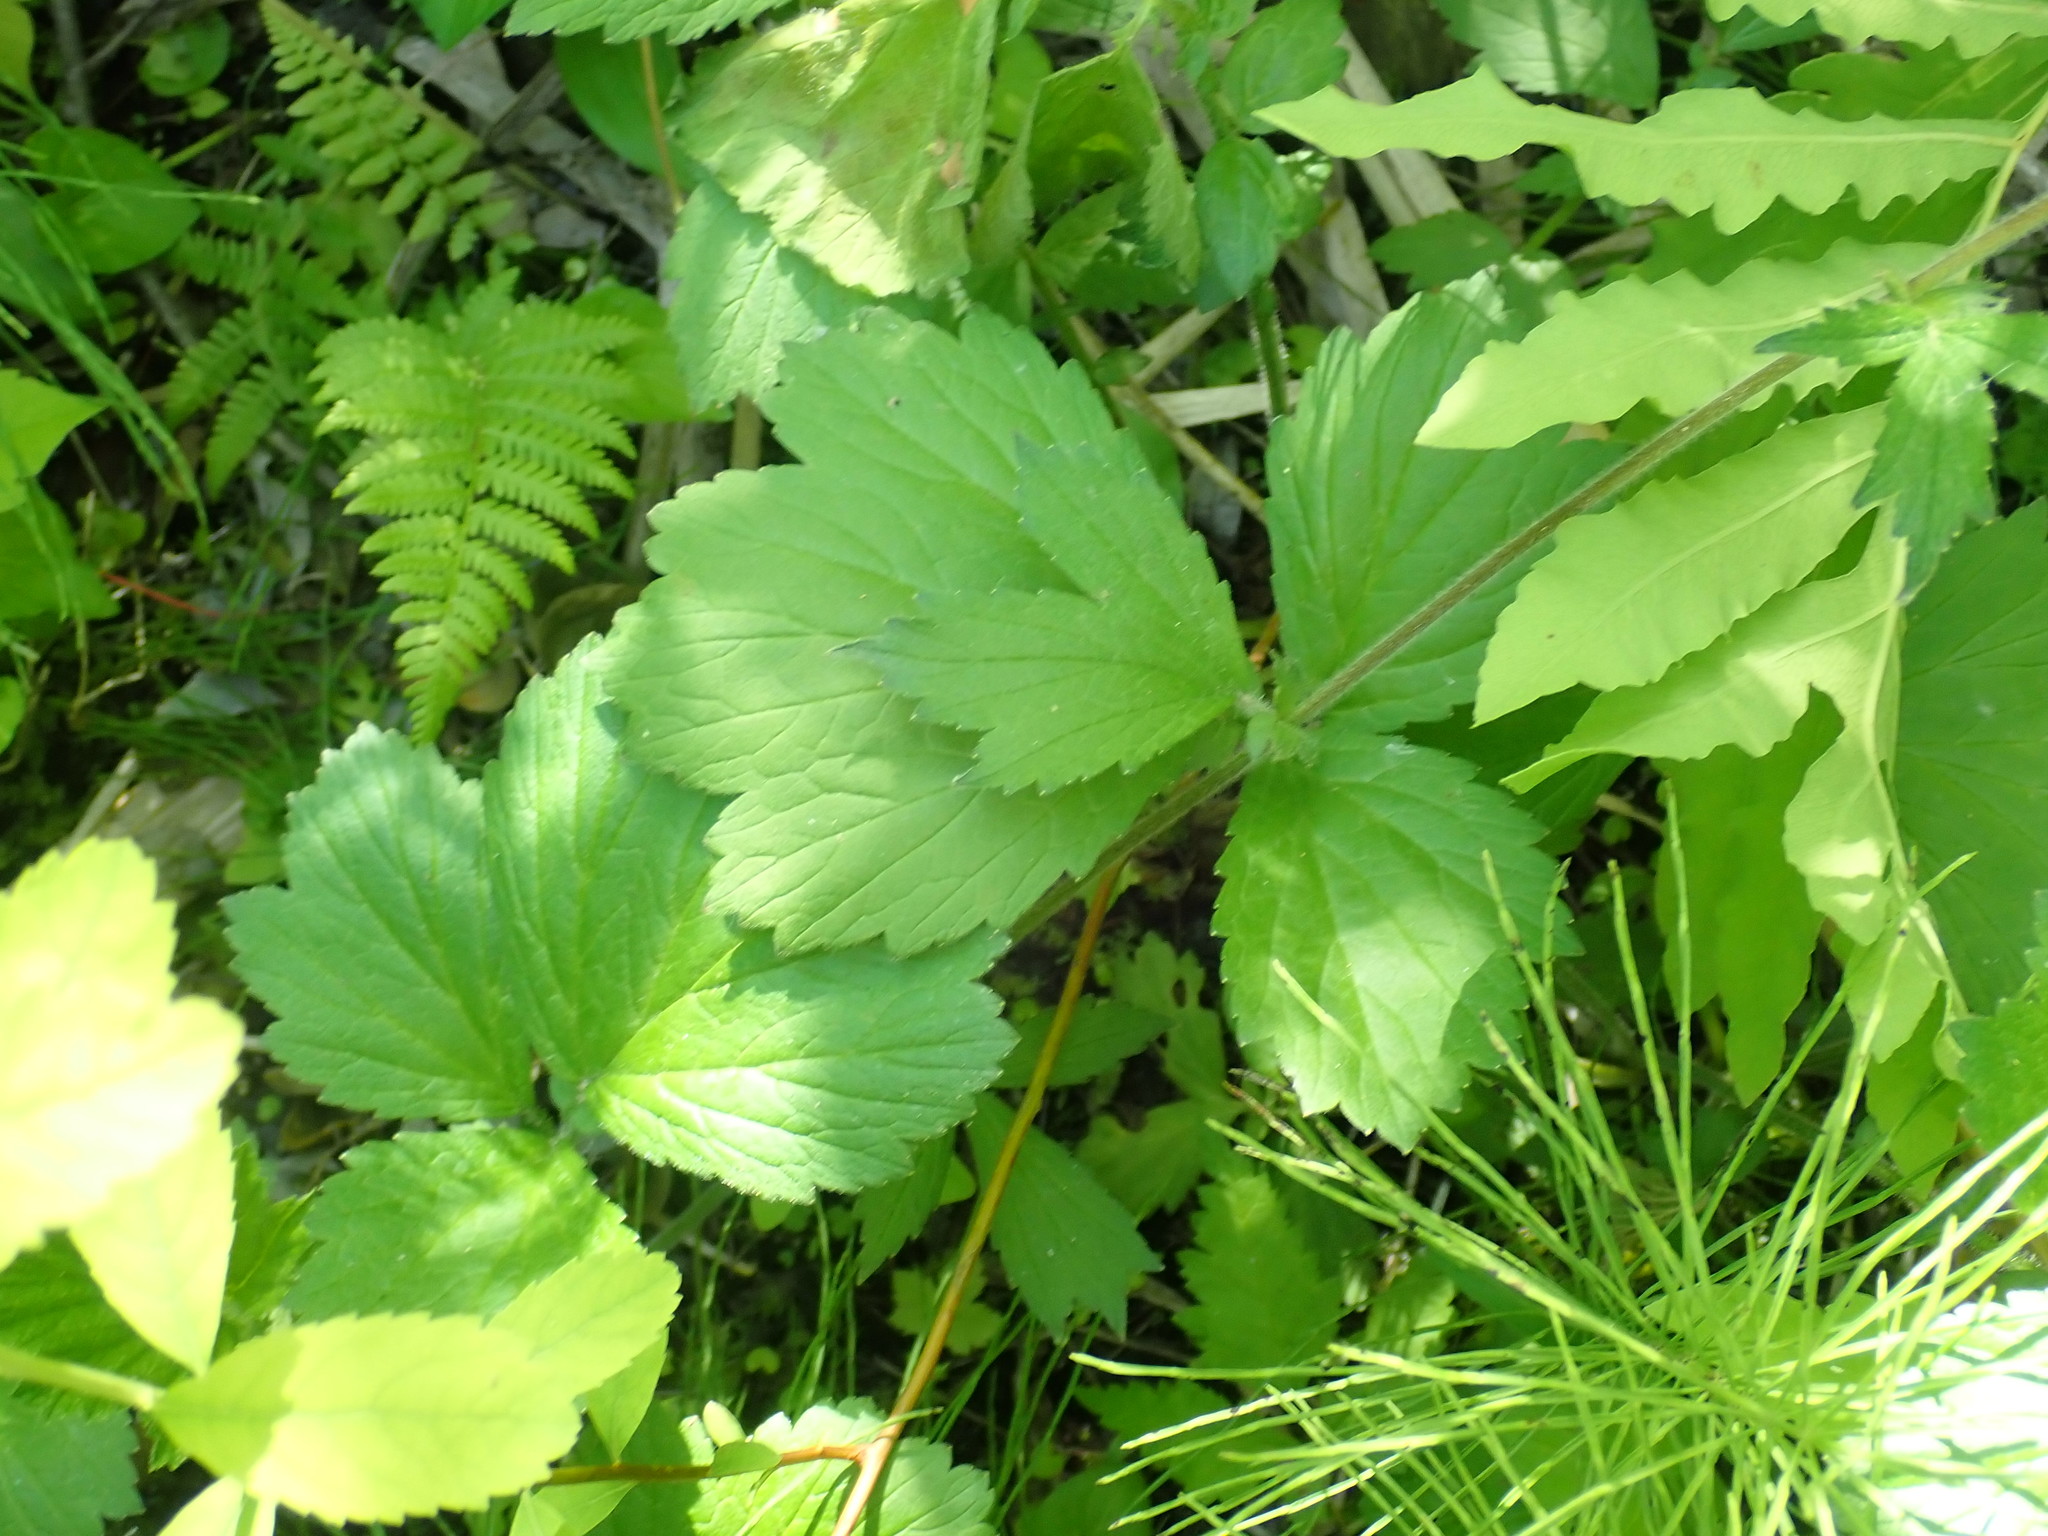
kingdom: Plantae
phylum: Tracheophyta
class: Magnoliopsida
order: Rosales
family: Rosaceae
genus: Geum
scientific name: Geum rivale
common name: Water avens
